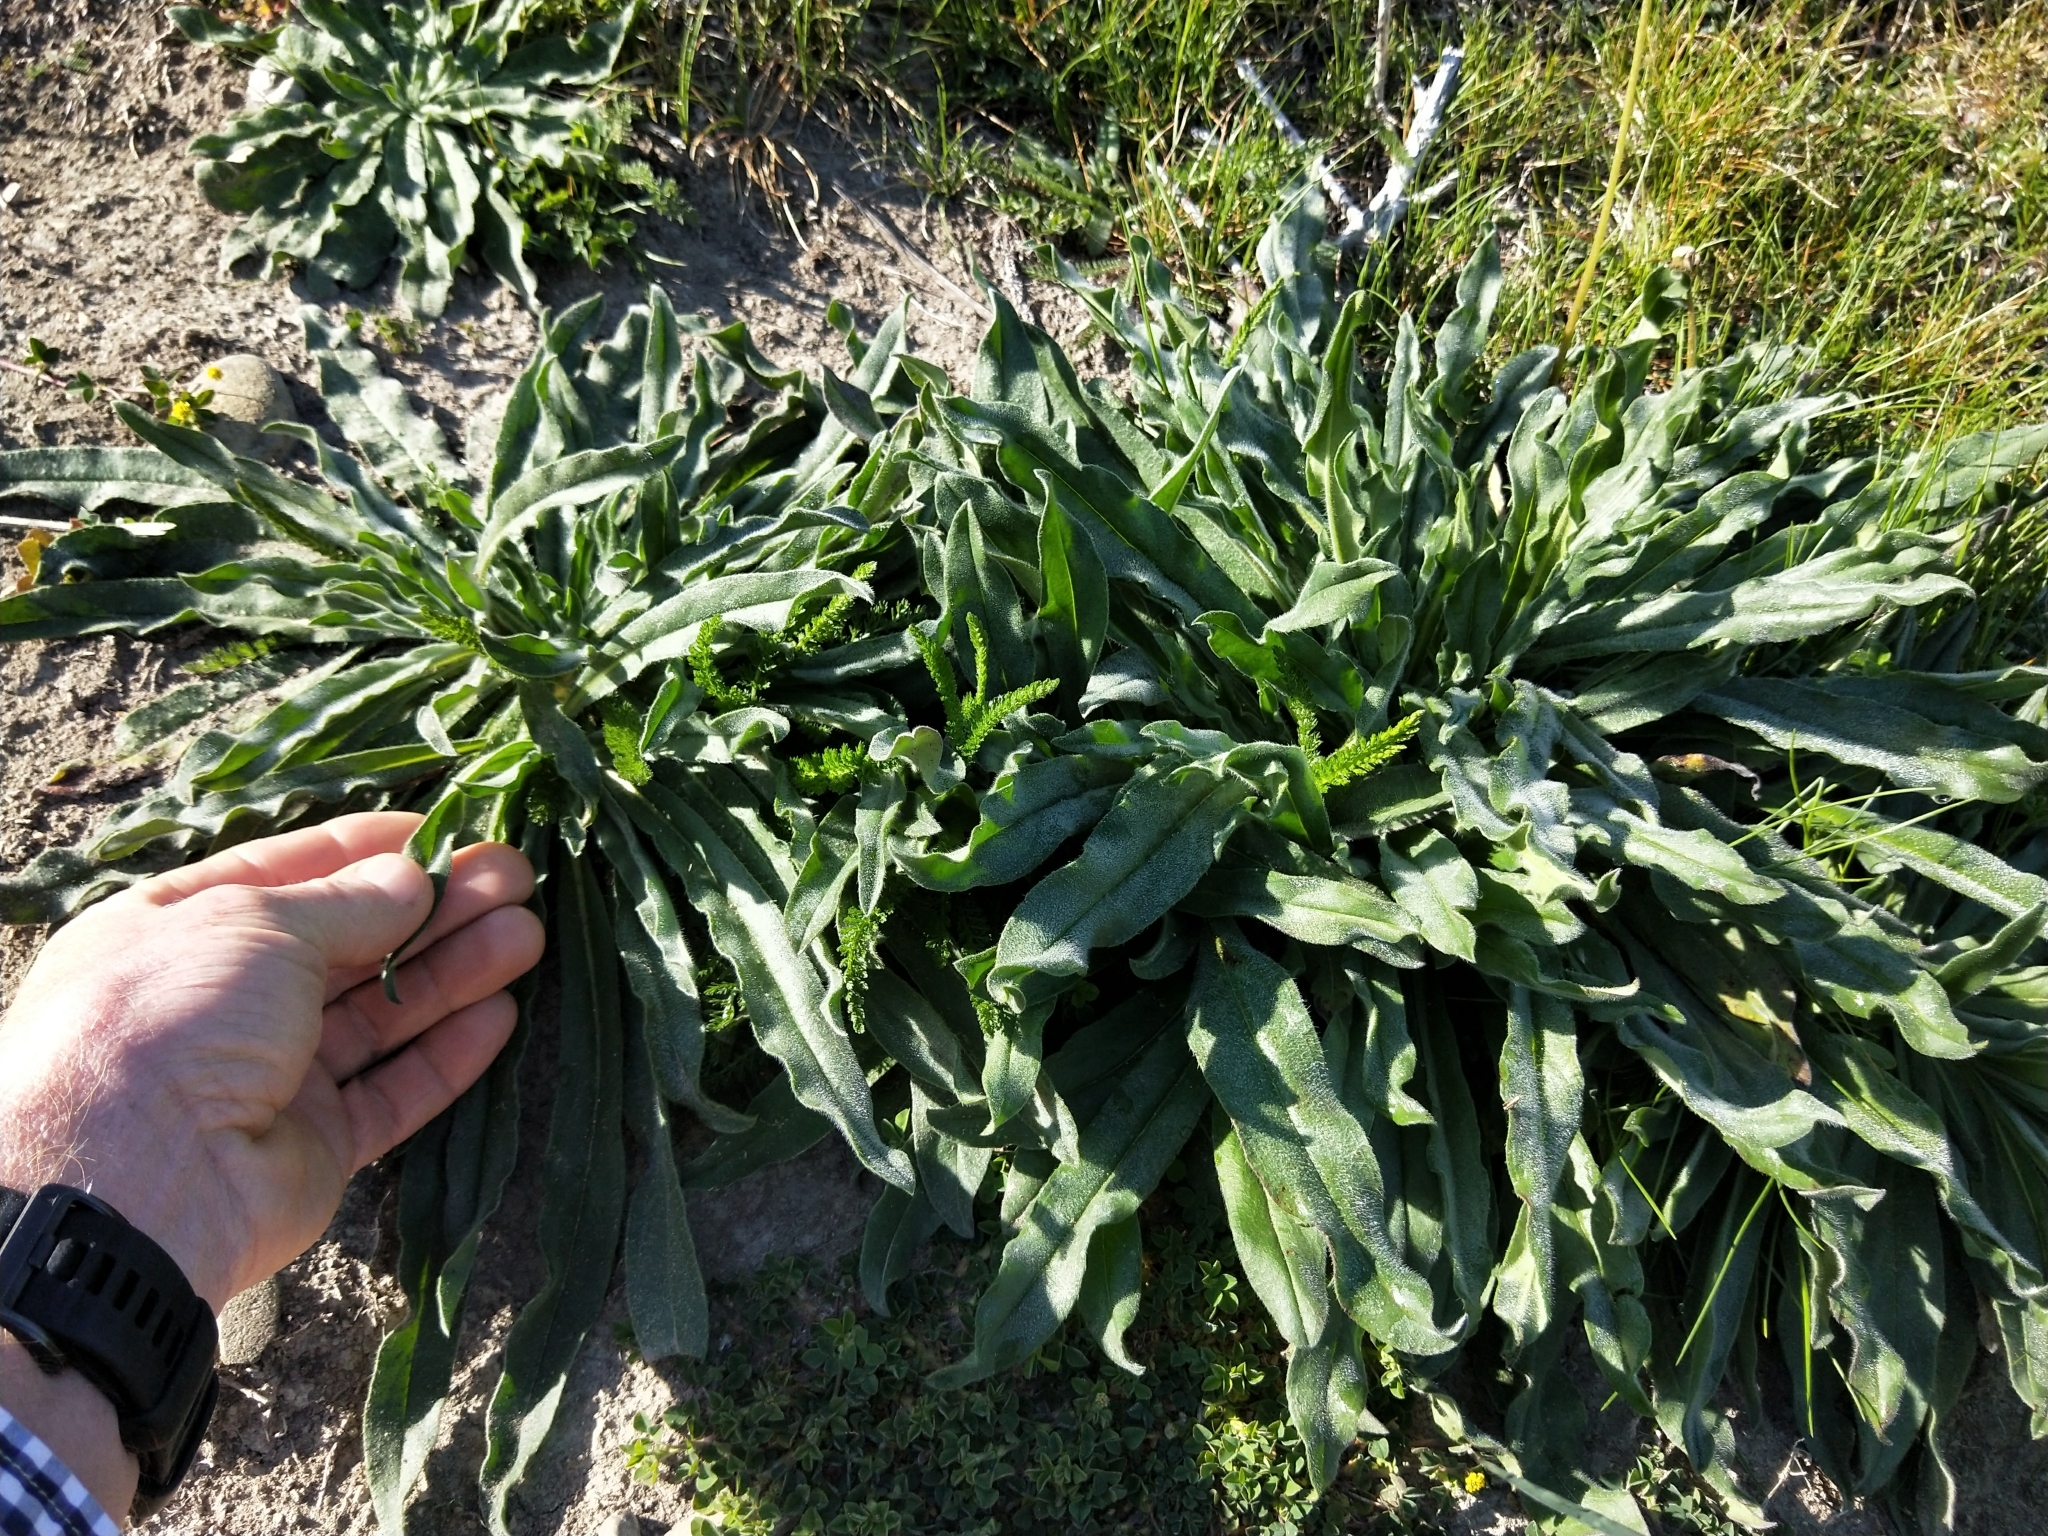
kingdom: Plantae
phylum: Tracheophyta
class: Magnoliopsida
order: Boraginales
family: Boraginaceae
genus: Echium
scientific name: Echium vulgare
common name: Common viper's bugloss
